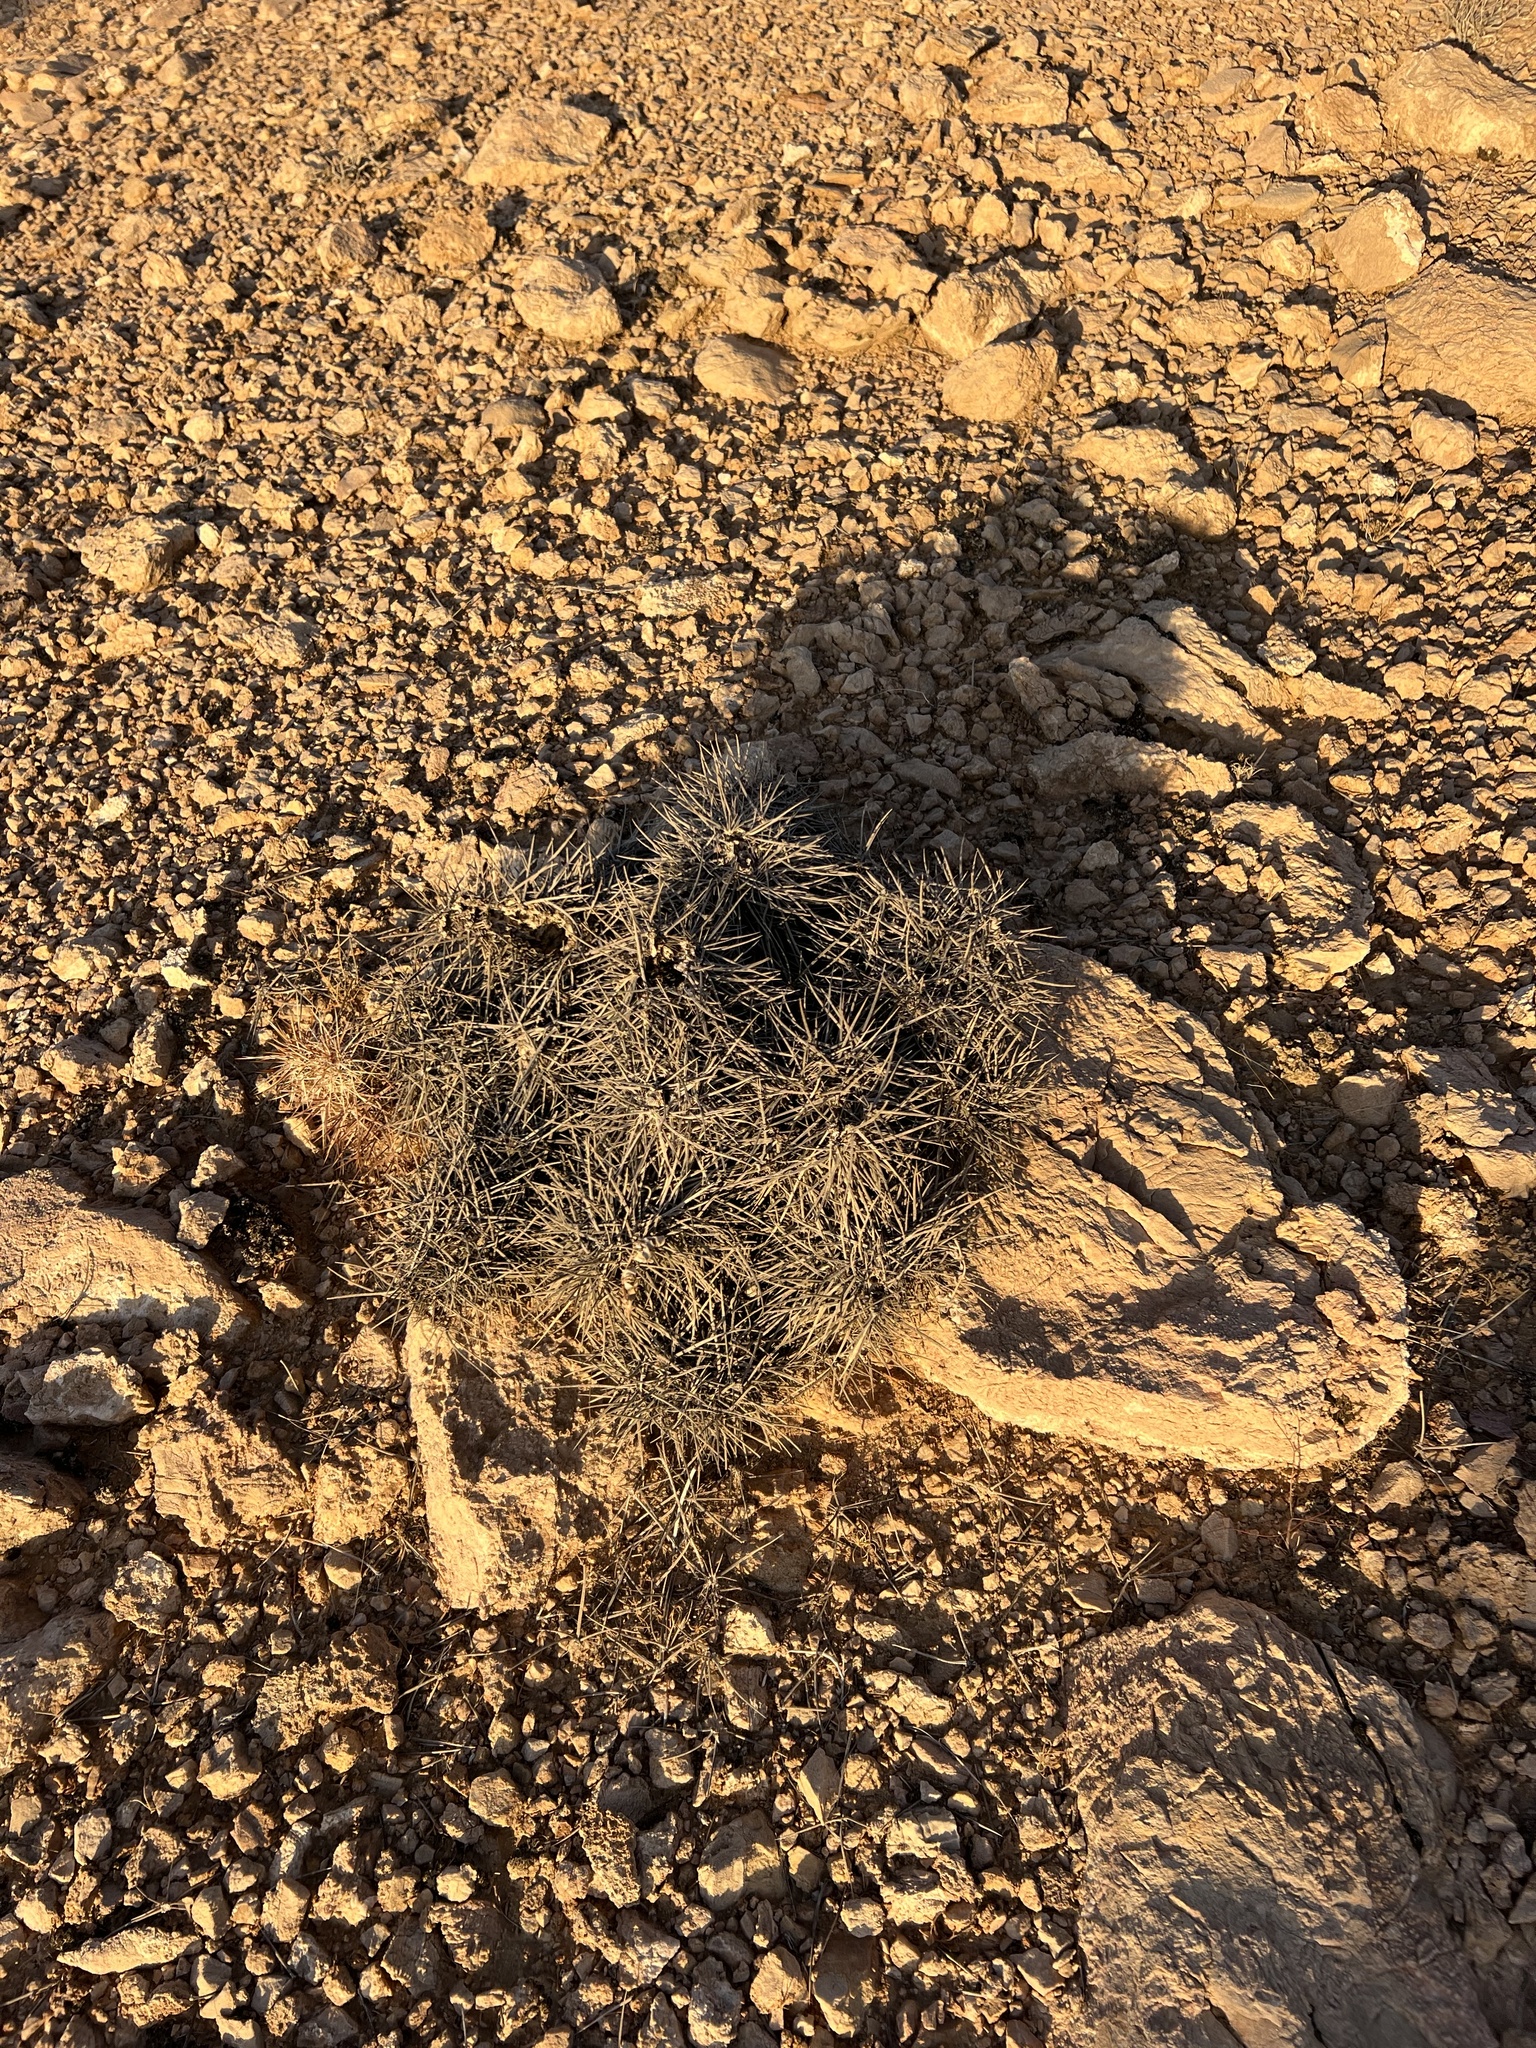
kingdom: Plantae
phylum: Tracheophyta
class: Magnoliopsida
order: Caryophyllales
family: Cactaceae
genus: Echinocereus
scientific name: Echinocereus engelmannii
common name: Engelmann's hedgehog cactus
